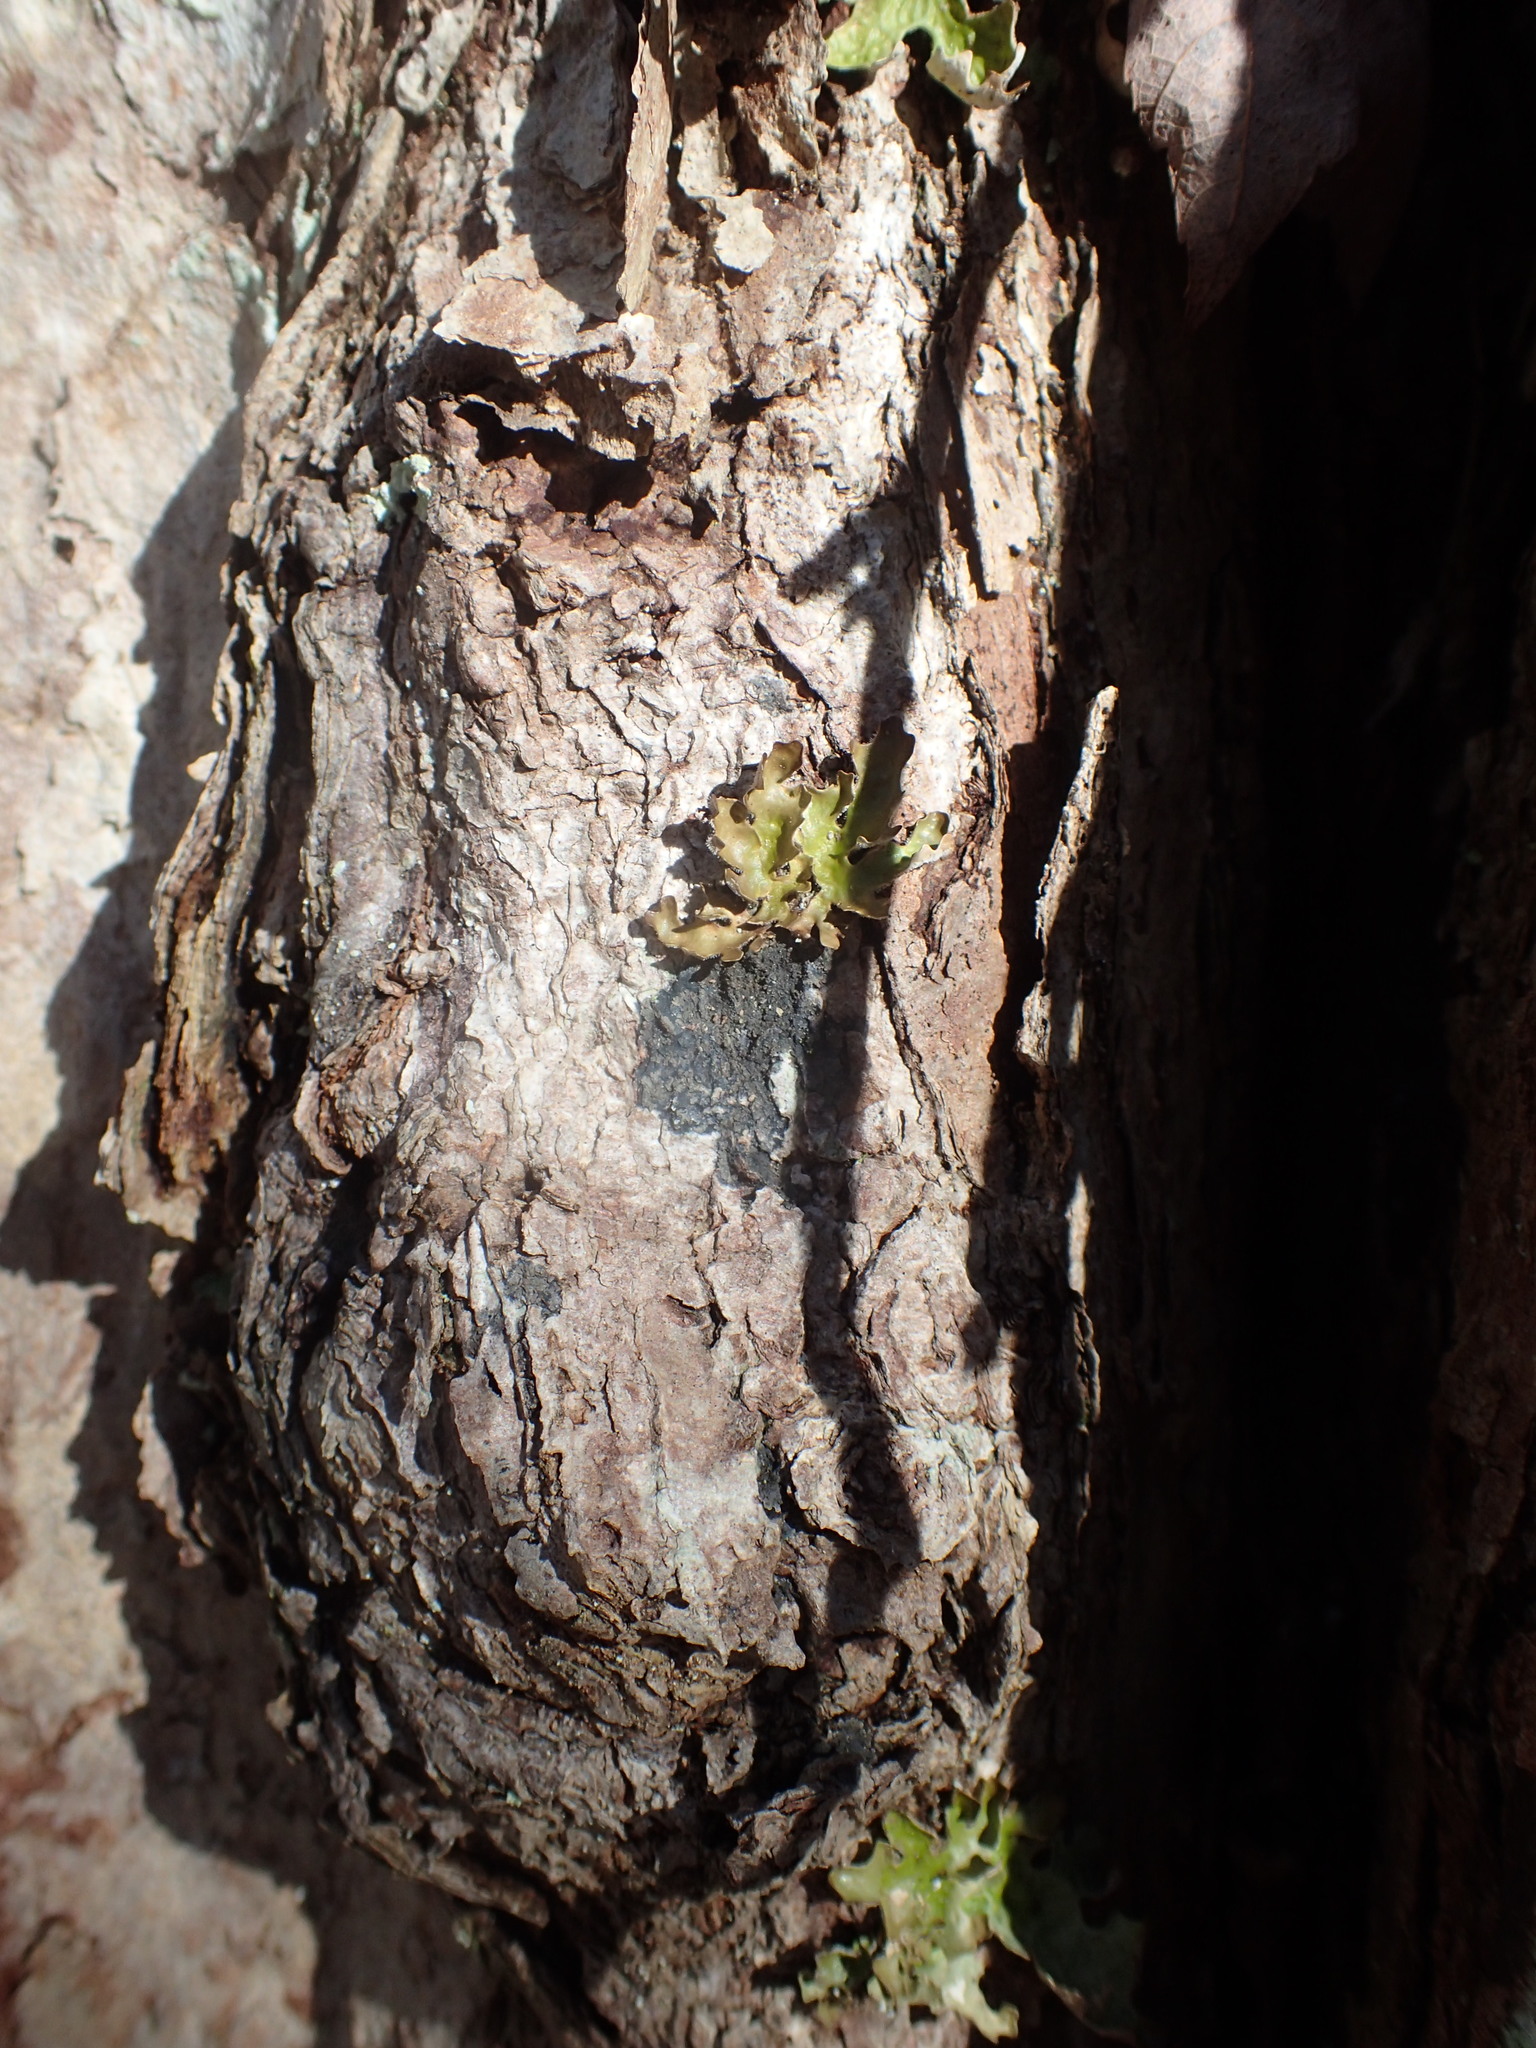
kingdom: Fungi
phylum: Ascomycota
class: Lecanoromycetes
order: Peltigerales
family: Pannariaceae
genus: Parmeliella
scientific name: Parmeliella thriptophylla
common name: Black-bordered shingle lichen
